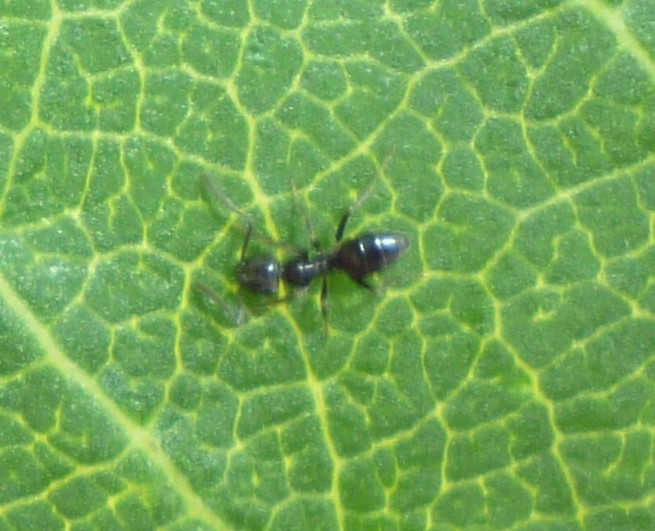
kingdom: Animalia
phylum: Arthropoda
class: Insecta
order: Hymenoptera
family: Formicidae
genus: Tapinoma
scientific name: Tapinoma sessile
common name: Odorous house ant
